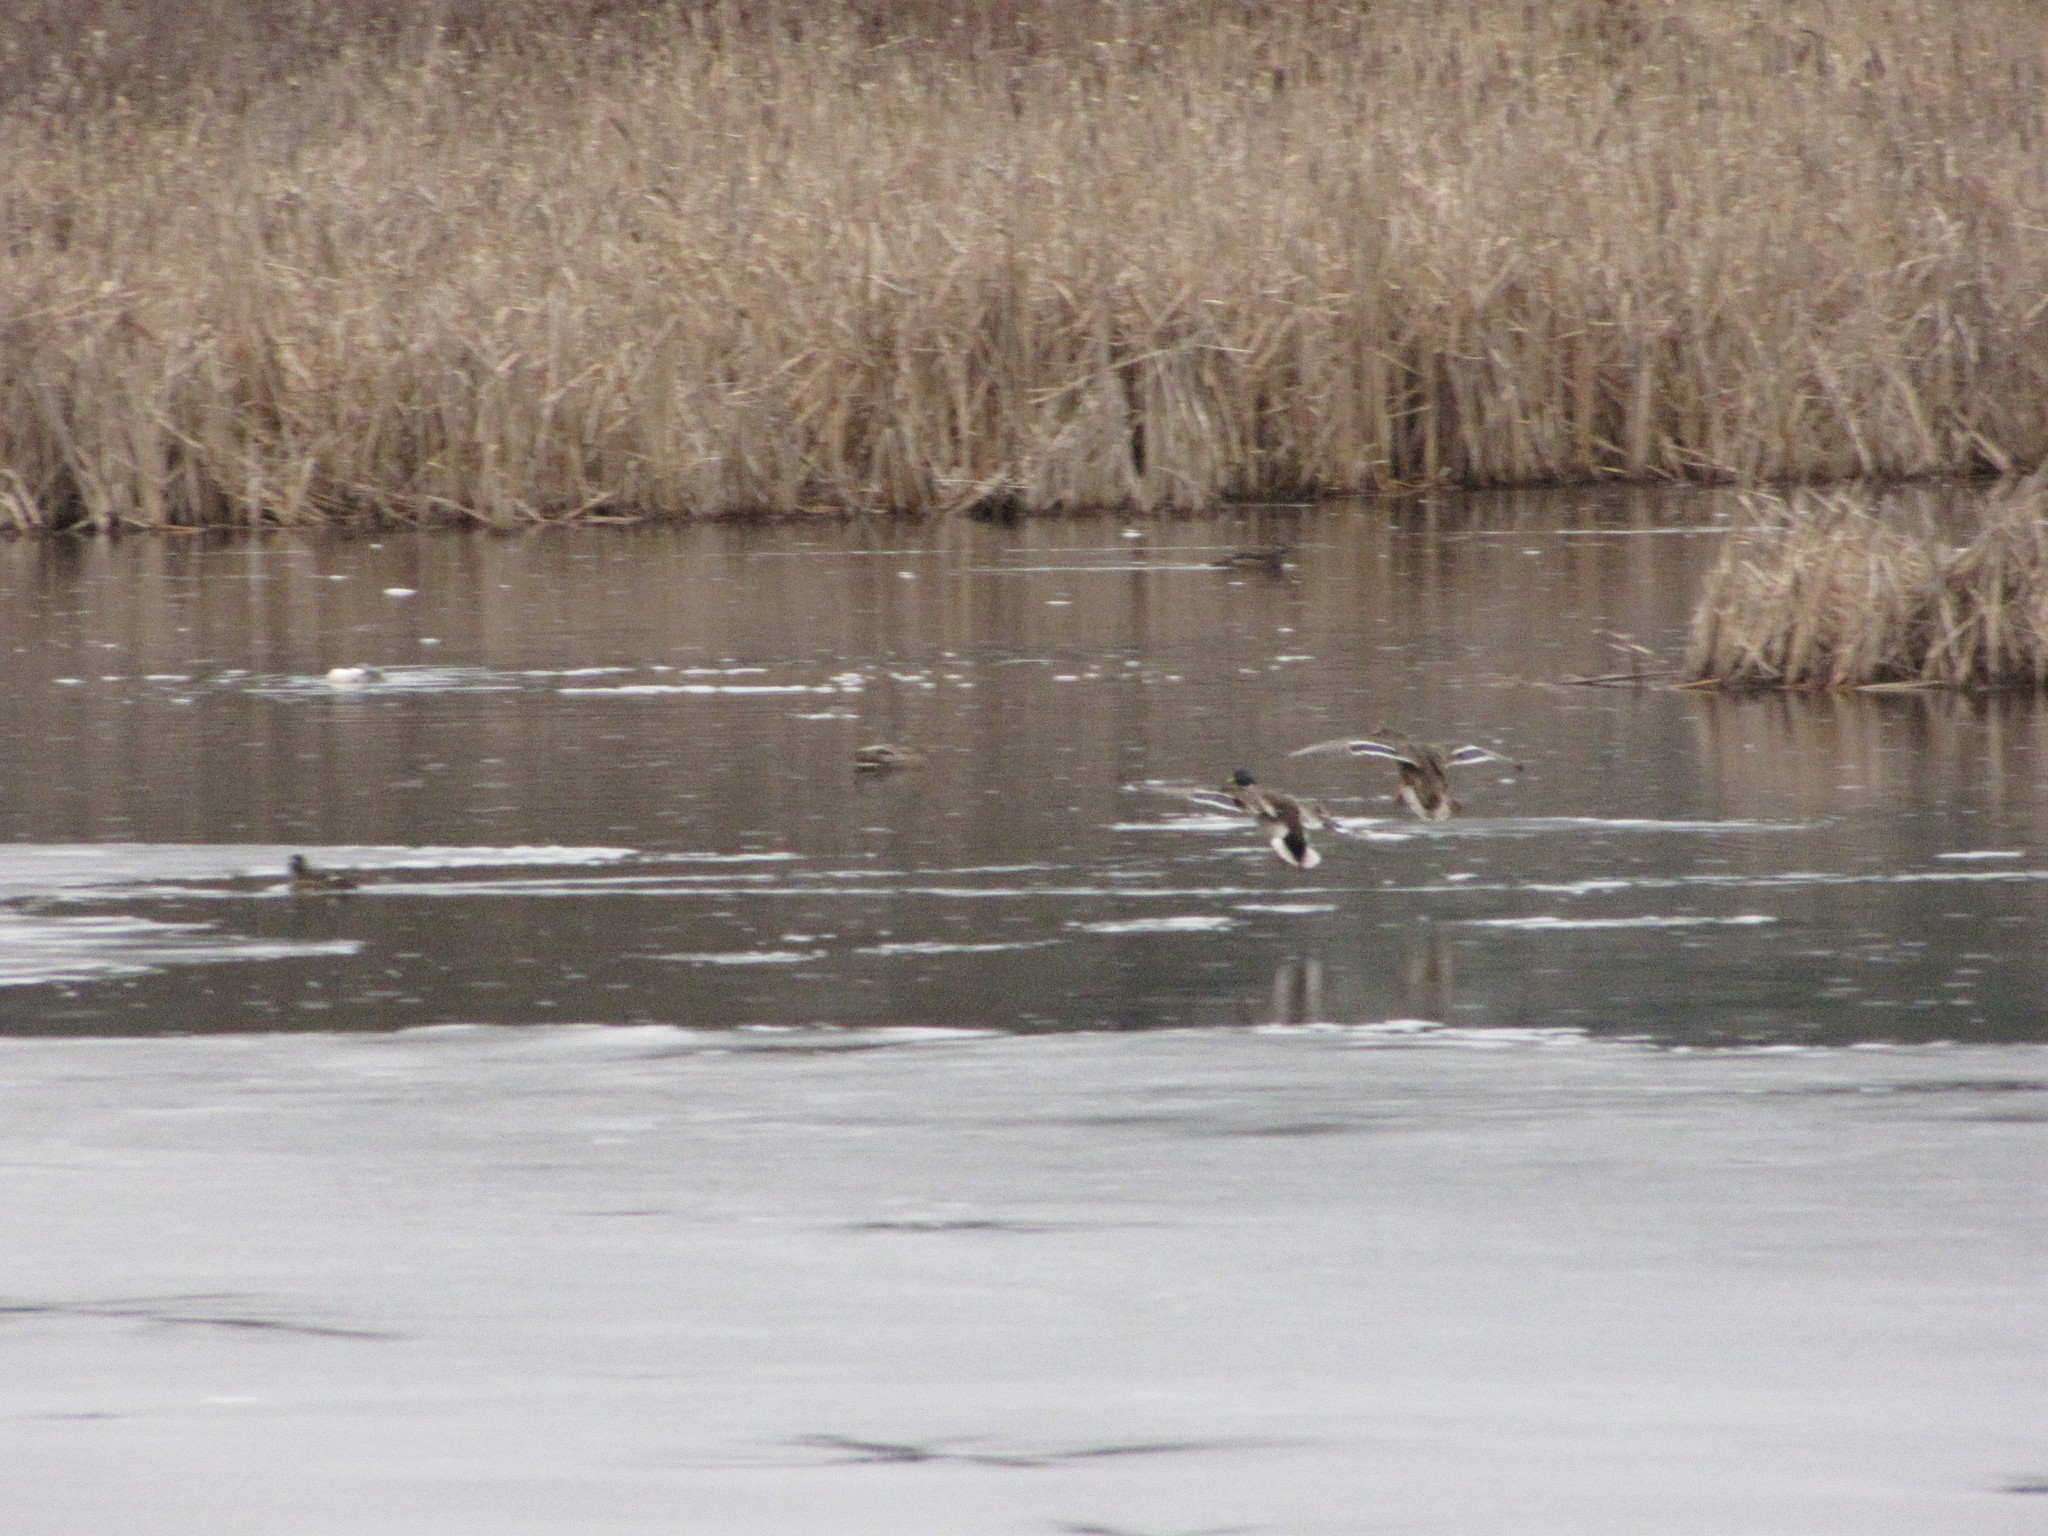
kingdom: Animalia
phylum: Chordata
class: Aves
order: Anseriformes
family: Anatidae
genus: Anas
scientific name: Anas platyrhynchos
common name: Mallard
